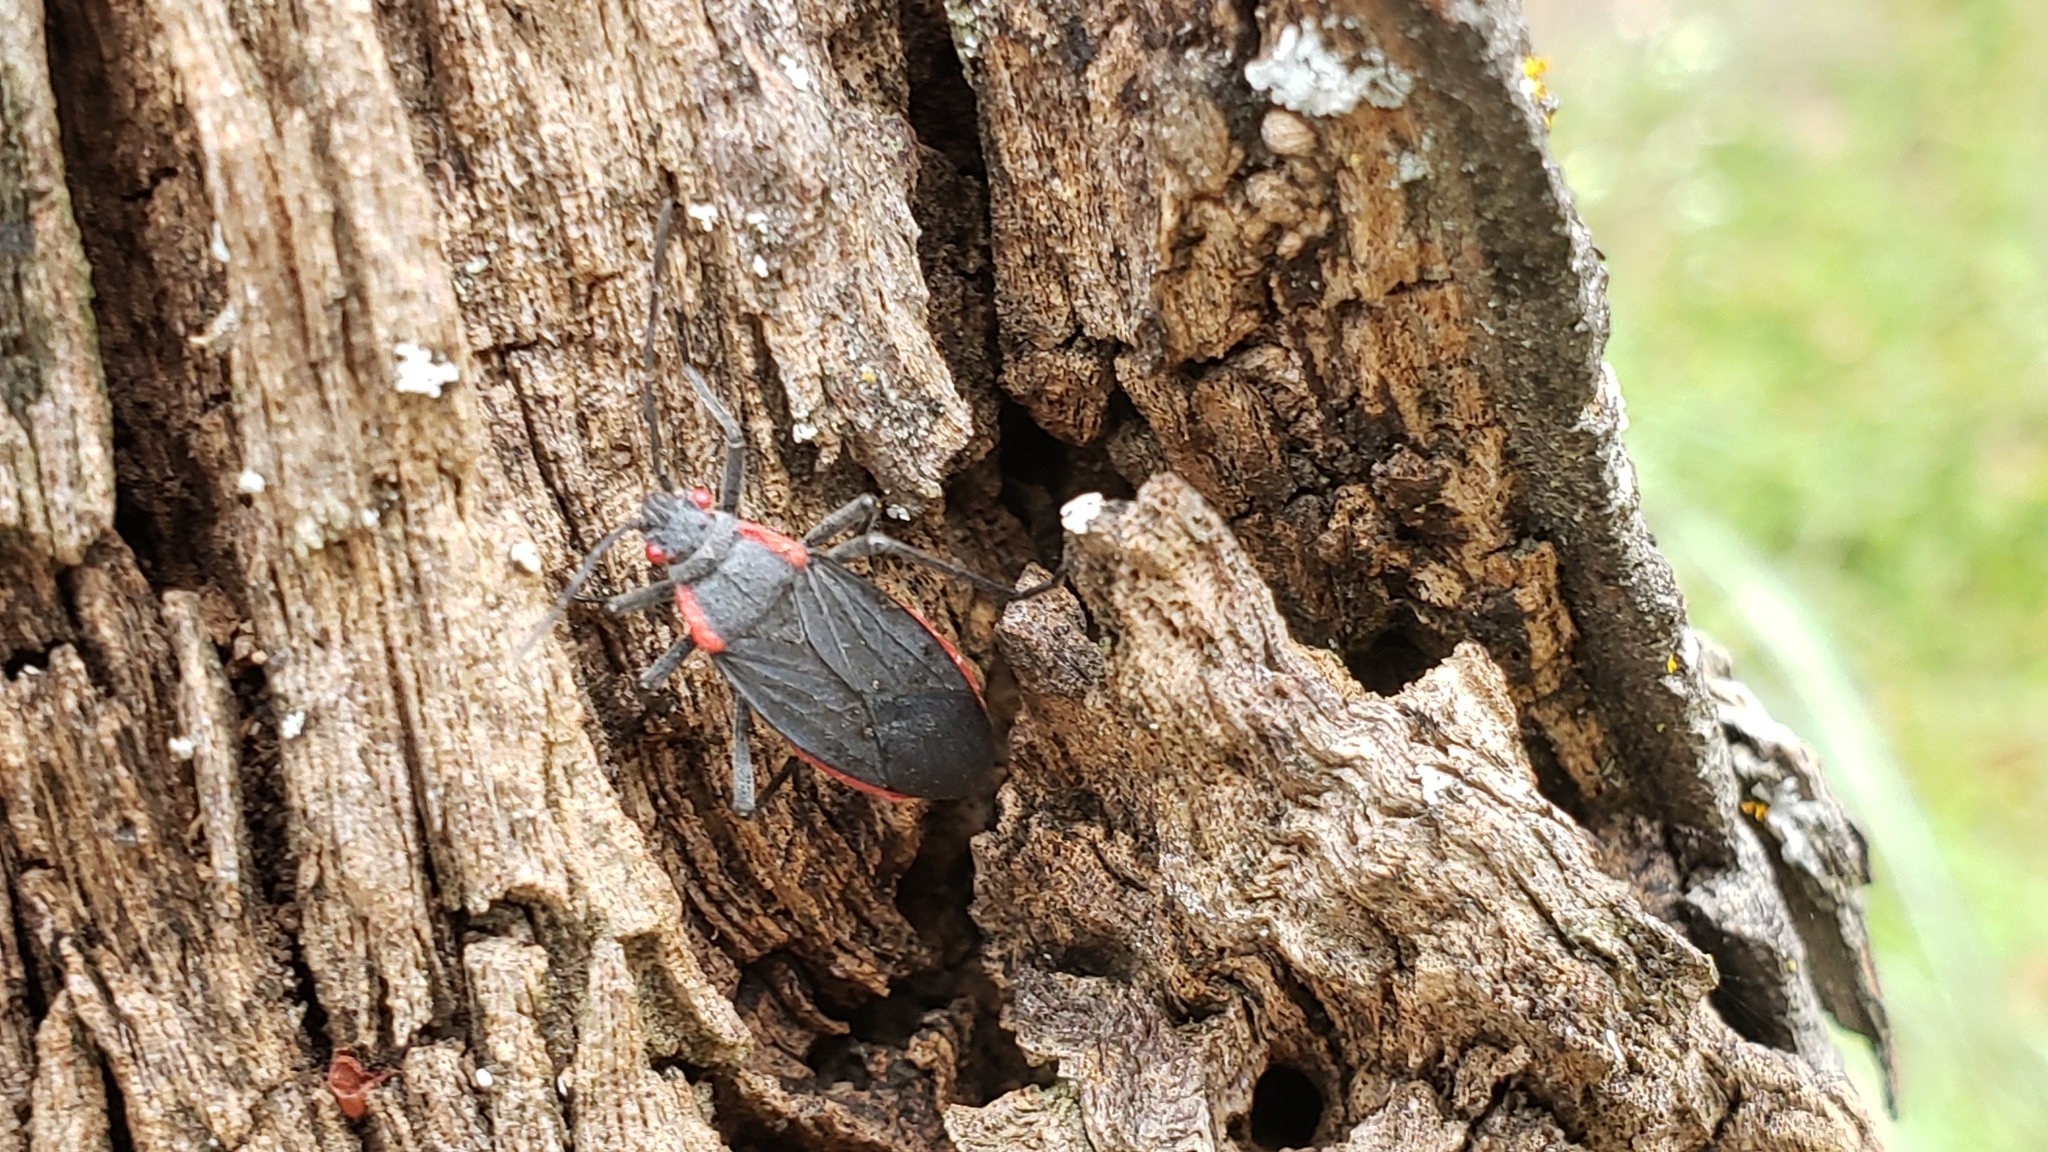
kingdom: Animalia
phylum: Arthropoda
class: Insecta
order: Hemiptera
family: Rhopalidae
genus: Jadera
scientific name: Jadera haematoloma
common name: Red-shouldered bug
